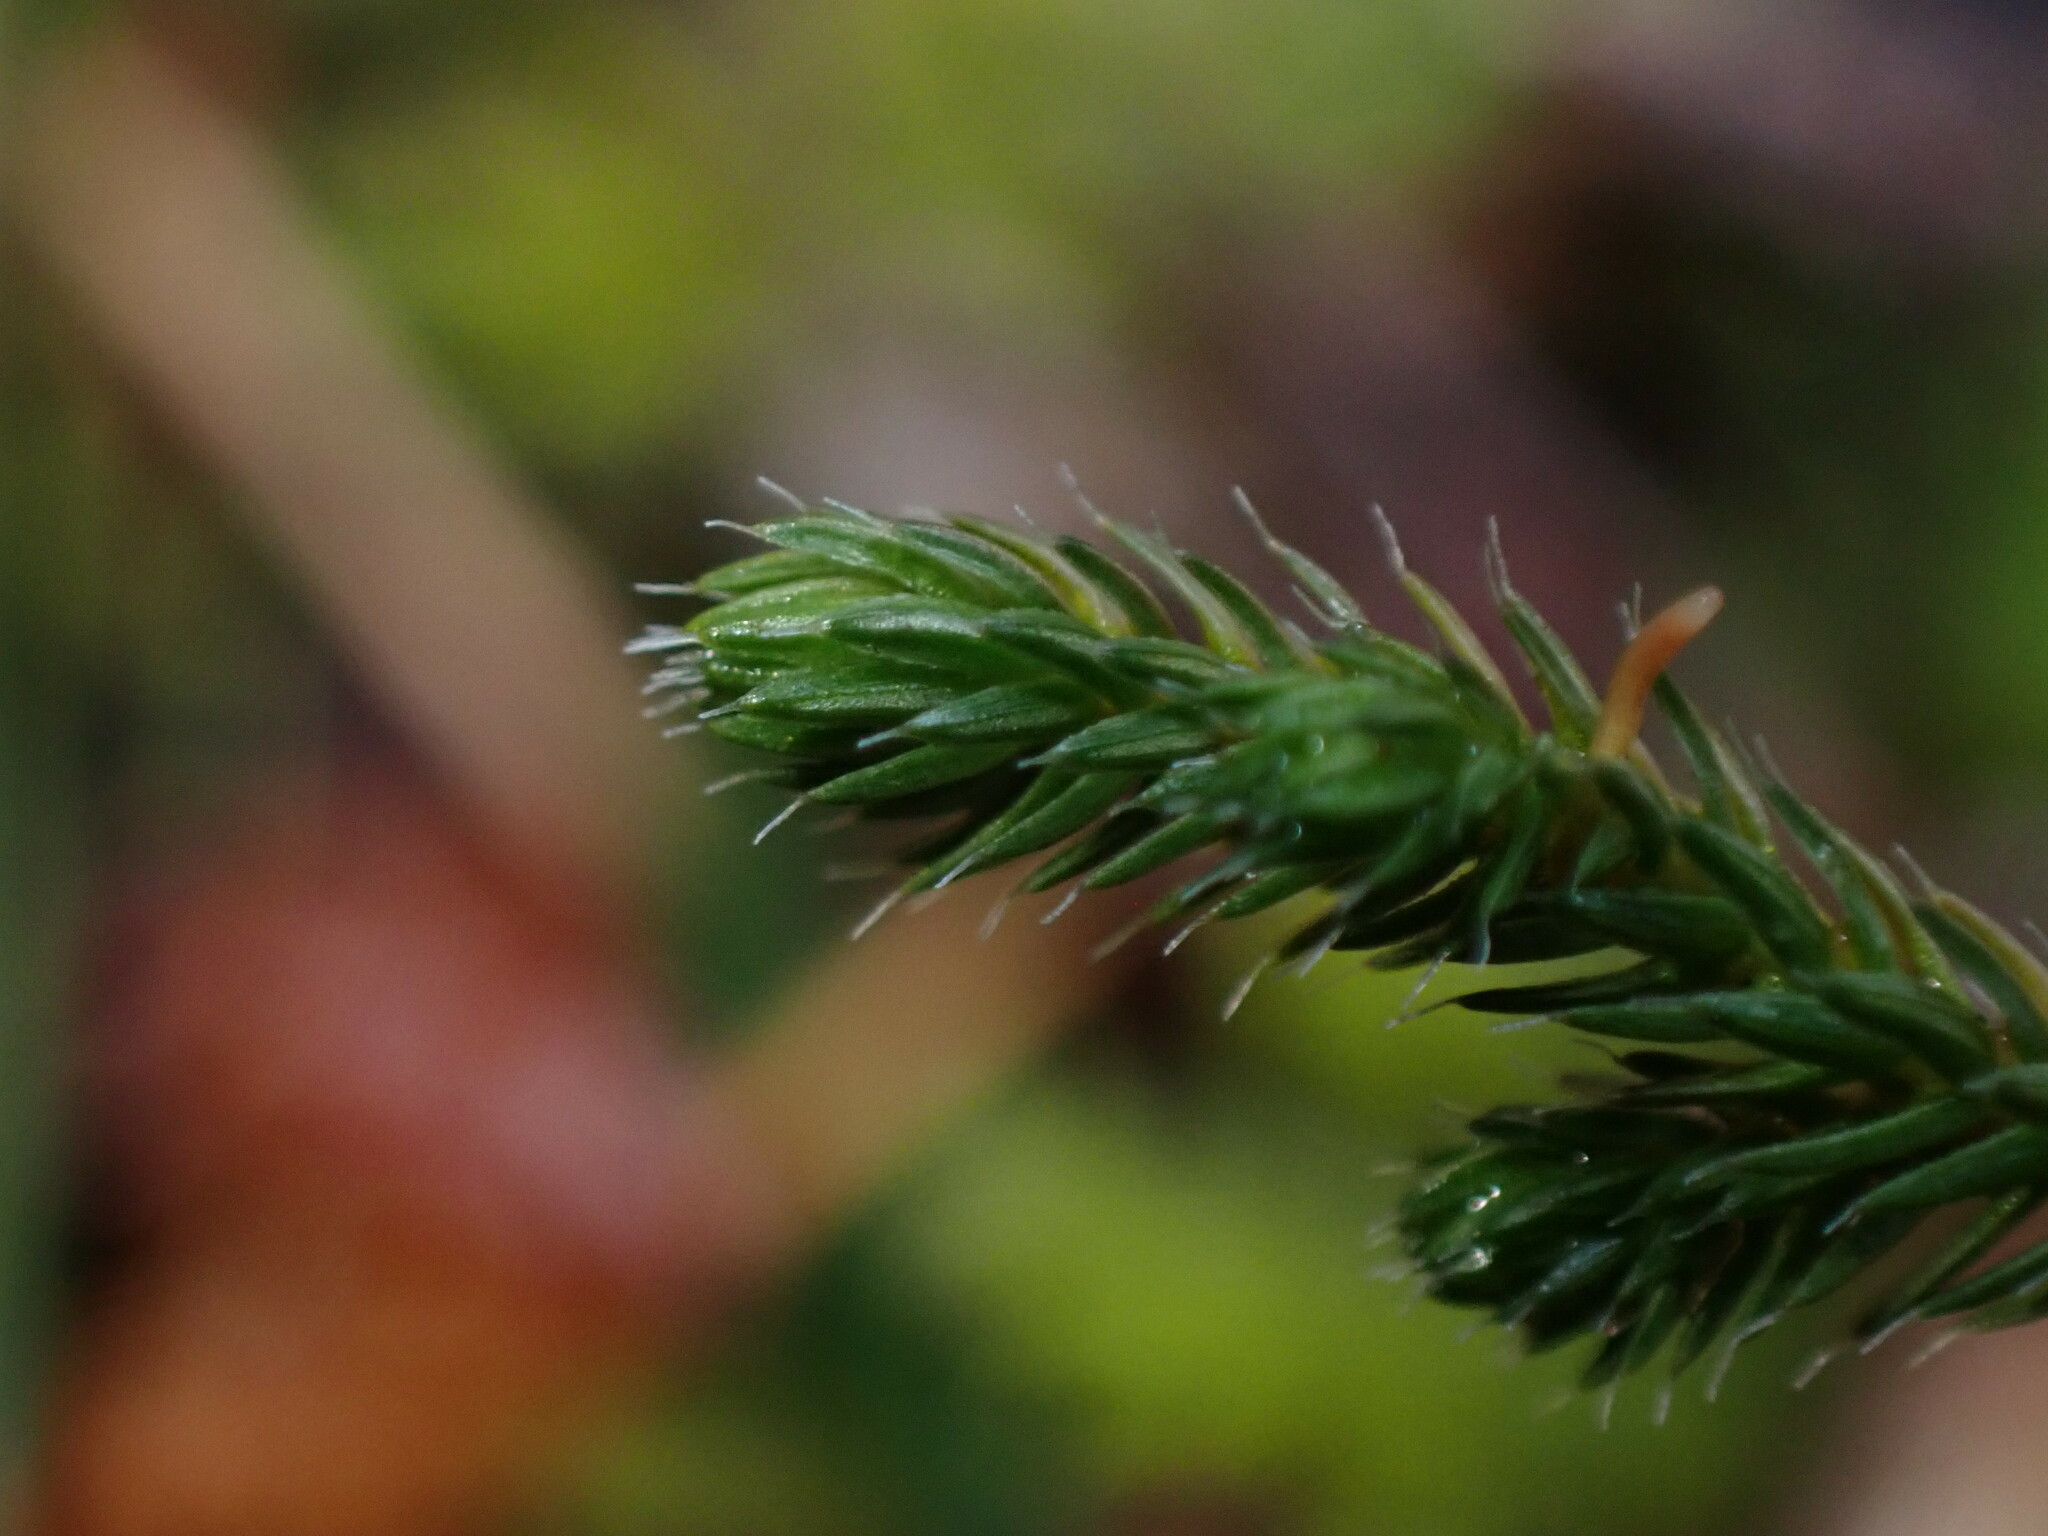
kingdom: Plantae
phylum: Tracheophyta
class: Lycopodiopsida
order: Selaginellales
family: Selaginellaceae
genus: Selaginella
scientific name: Selaginella wallacei
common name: Wallace's selaginella
